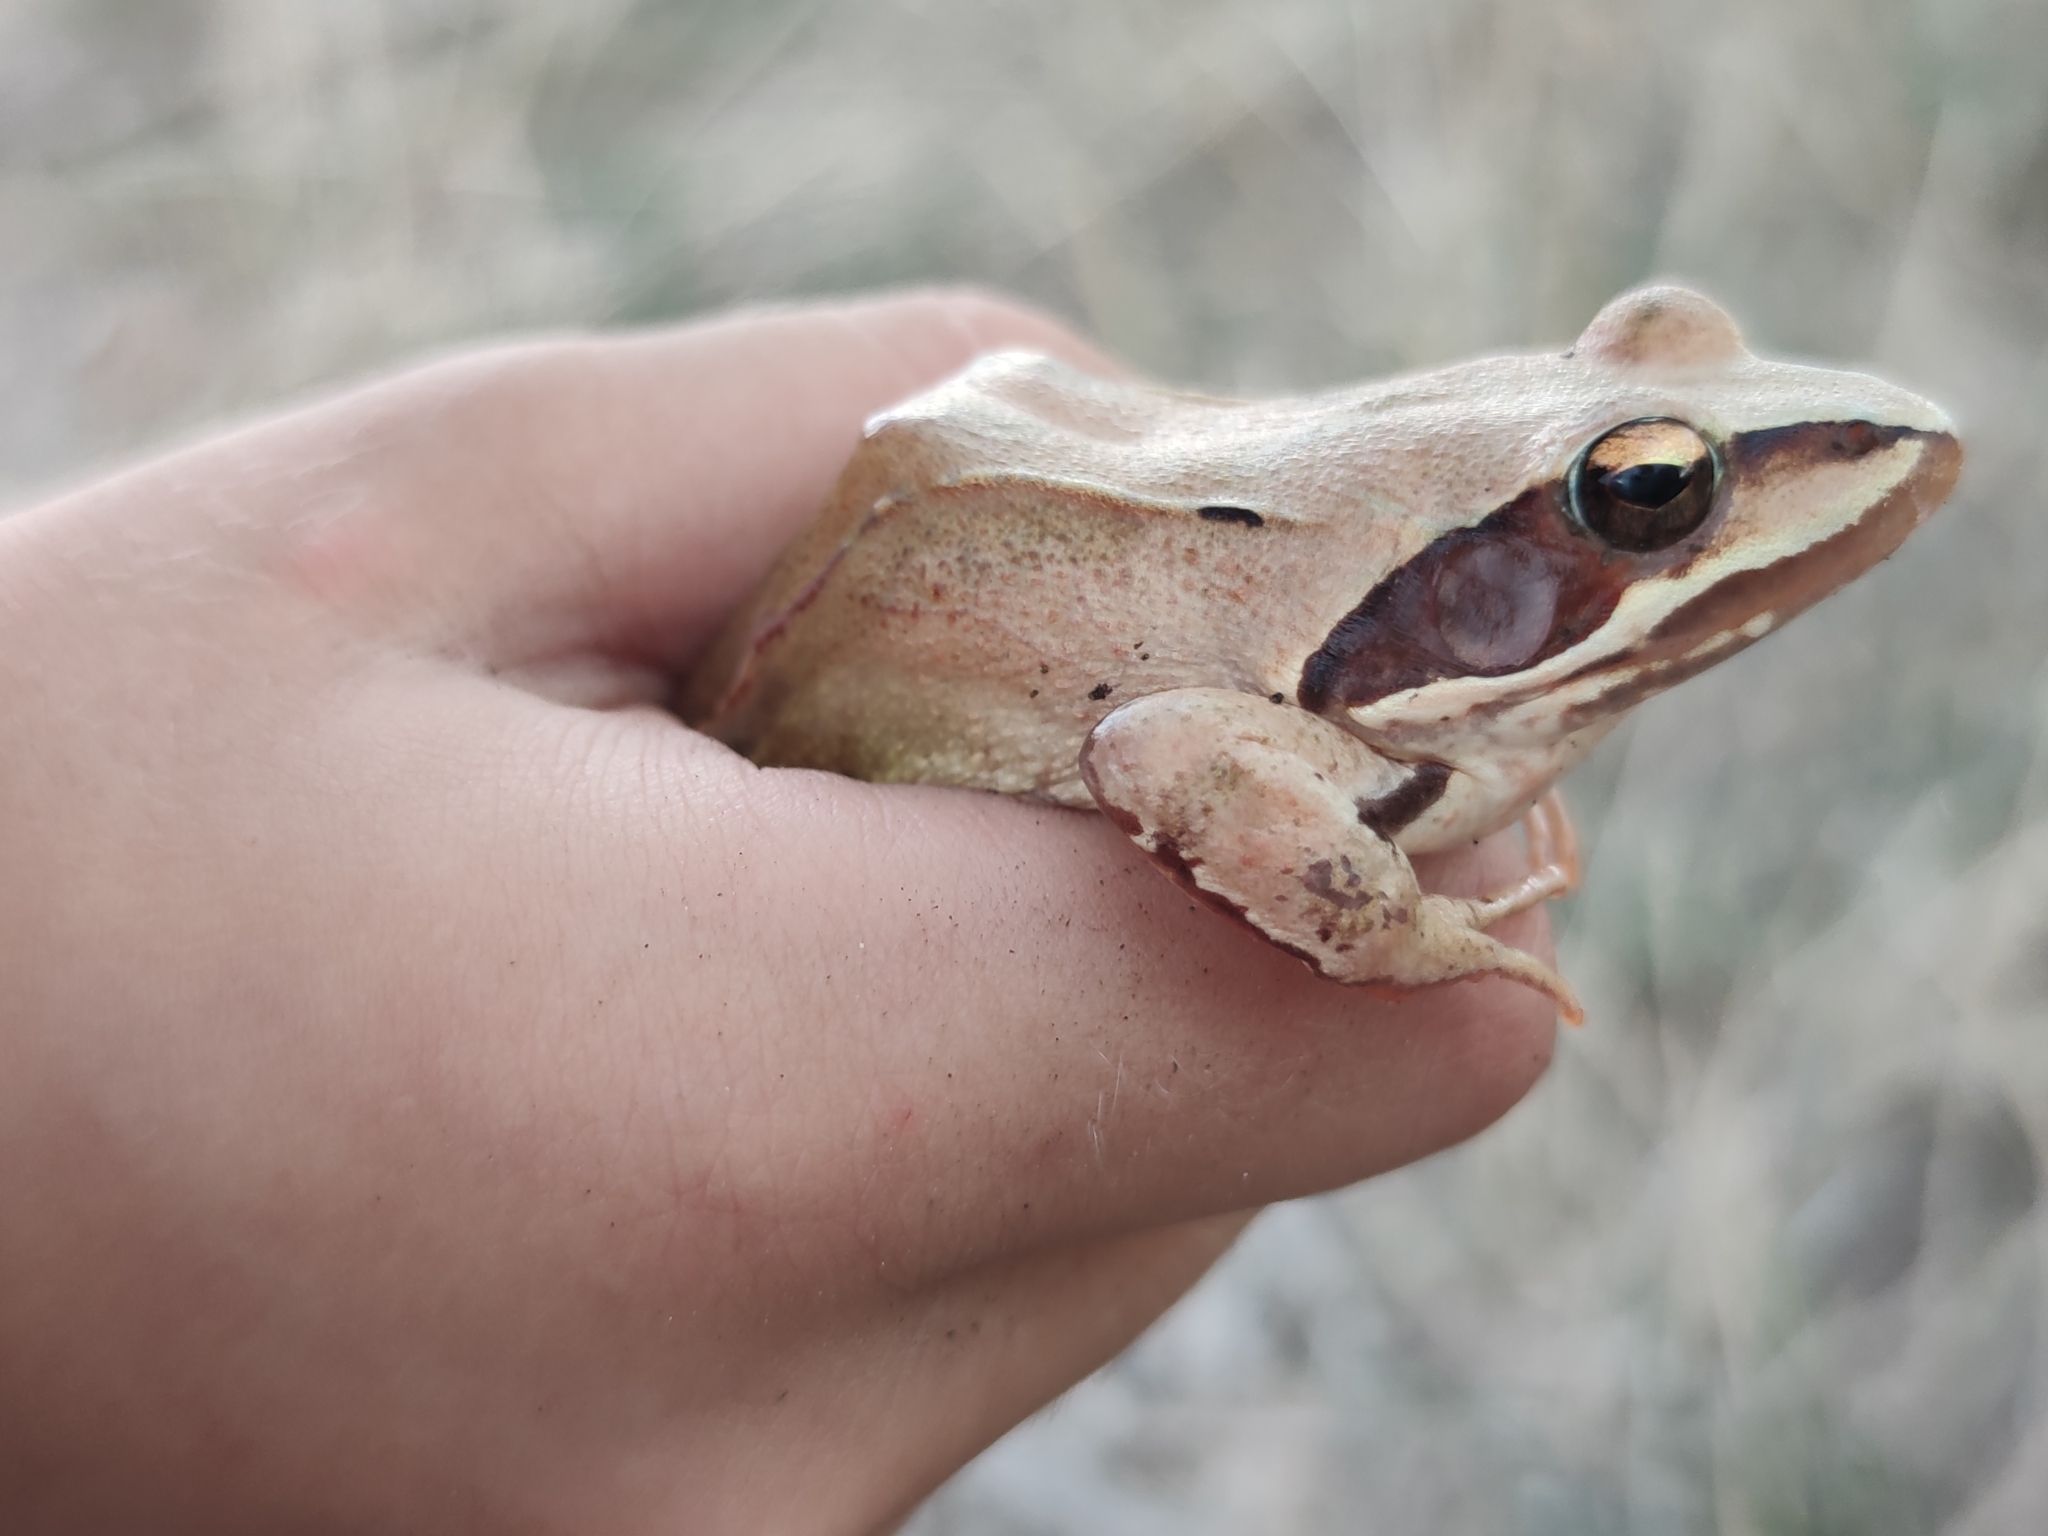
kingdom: Animalia
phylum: Chordata
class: Amphibia
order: Anura
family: Ranidae
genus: Rana
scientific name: Rana dalmatina
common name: Agile frog
